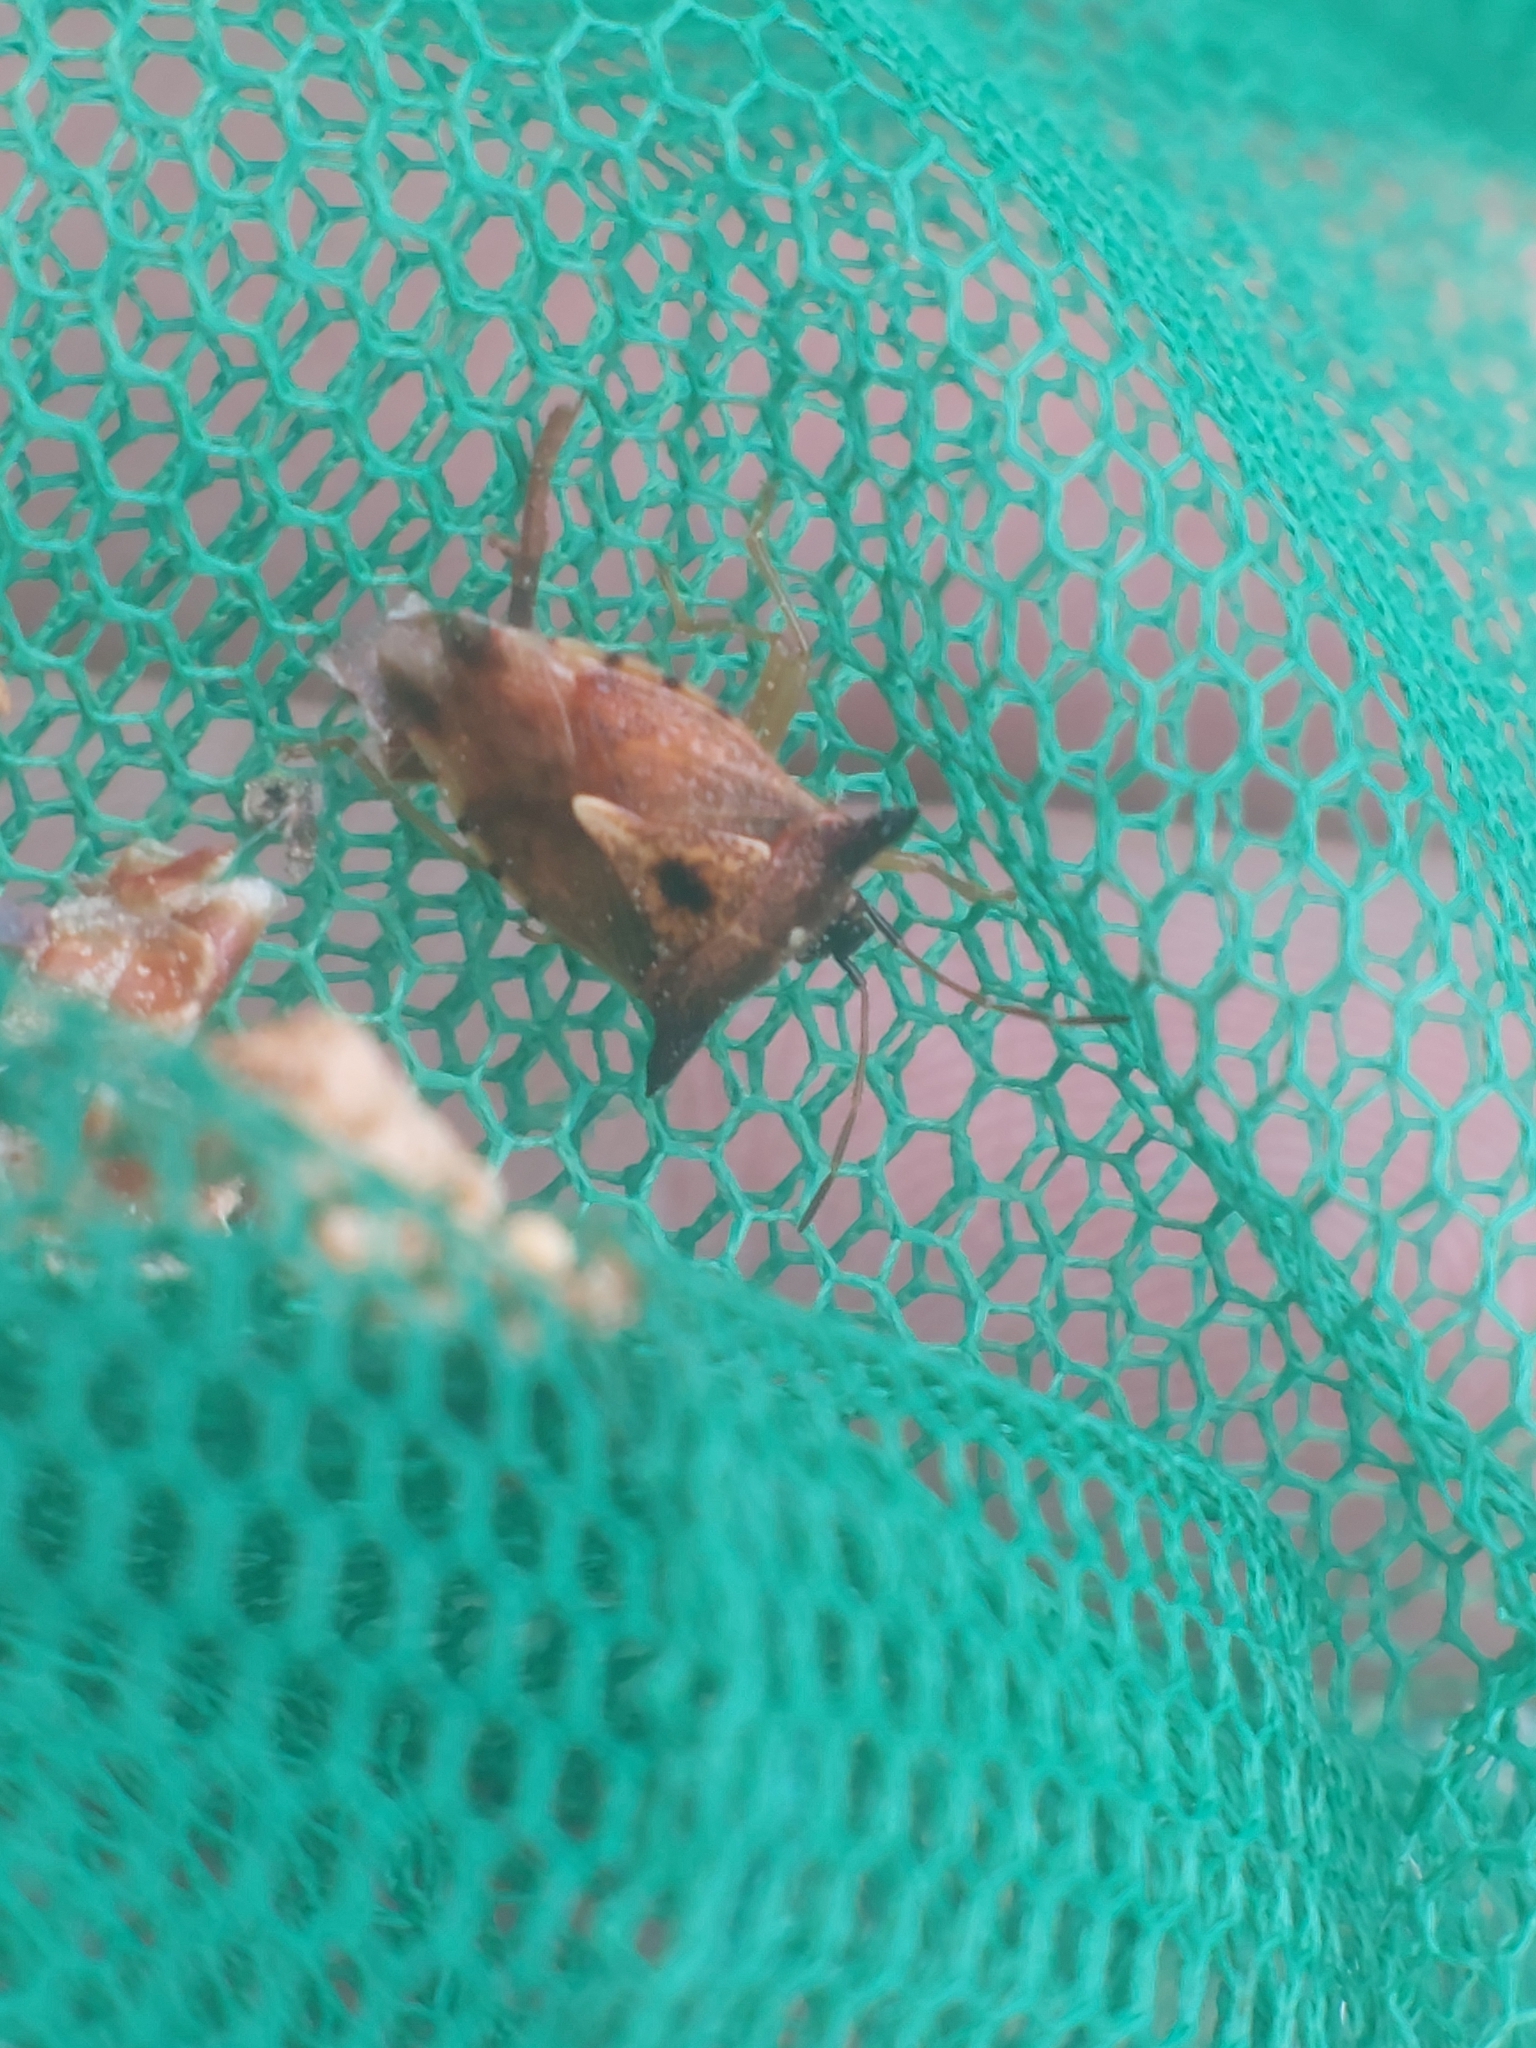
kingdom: Animalia
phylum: Arthropoda
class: Insecta
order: Hemiptera
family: Acanthosomatidae
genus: Elasmucha
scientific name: Elasmucha ferrugata
